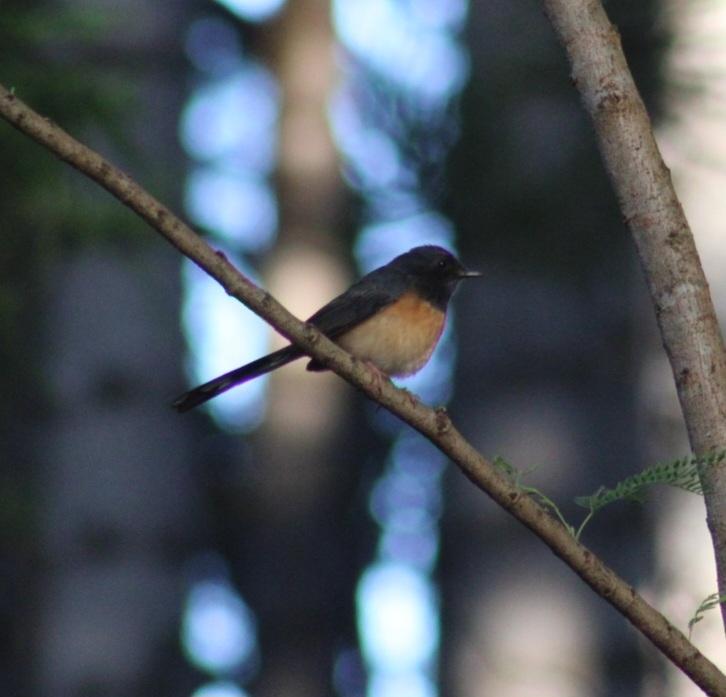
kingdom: Animalia
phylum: Chordata
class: Aves
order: Passeriformes
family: Muscicapidae
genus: Copsychus
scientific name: Copsychus malabaricus
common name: White-rumped shama
